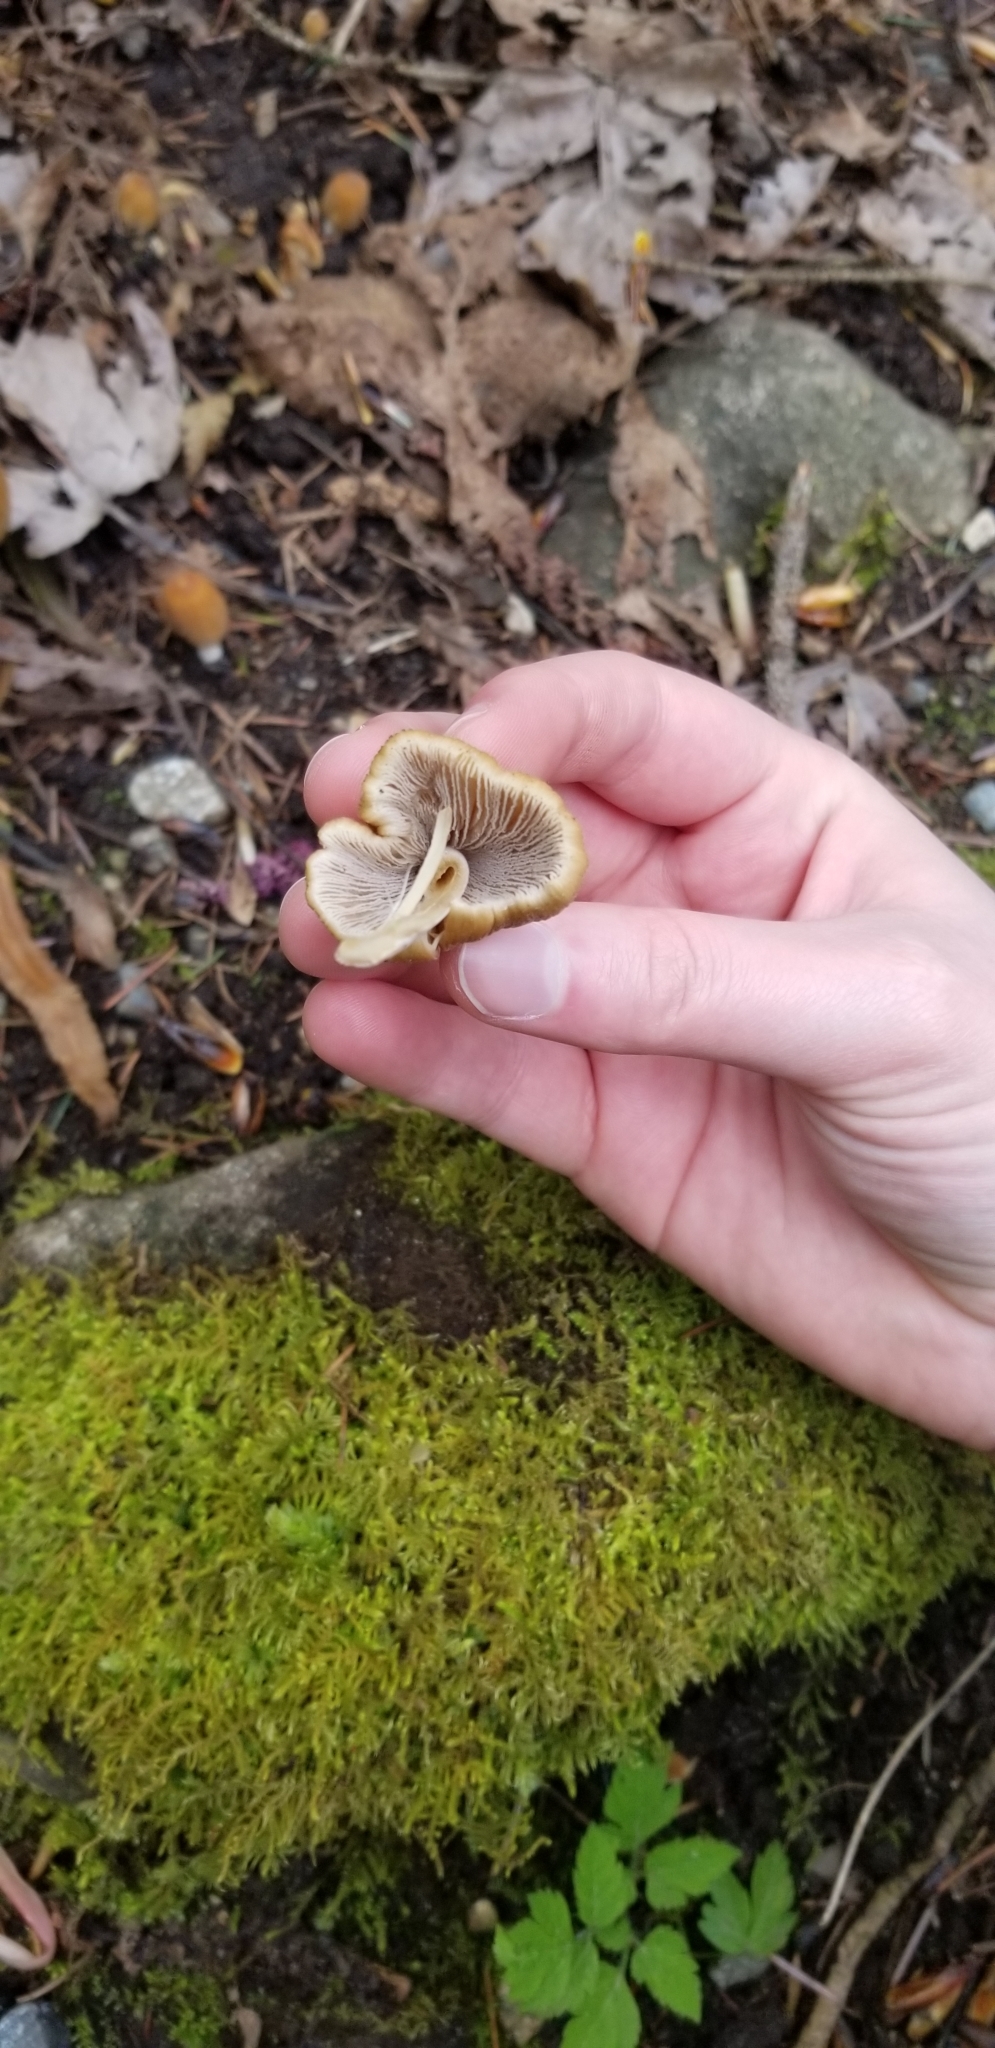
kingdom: Fungi
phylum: Basidiomycota
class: Agaricomycetes
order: Agaricales
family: Psathyrellaceae
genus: Coprinellus
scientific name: Coprinellus micaceus
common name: Glistening ink-cap
